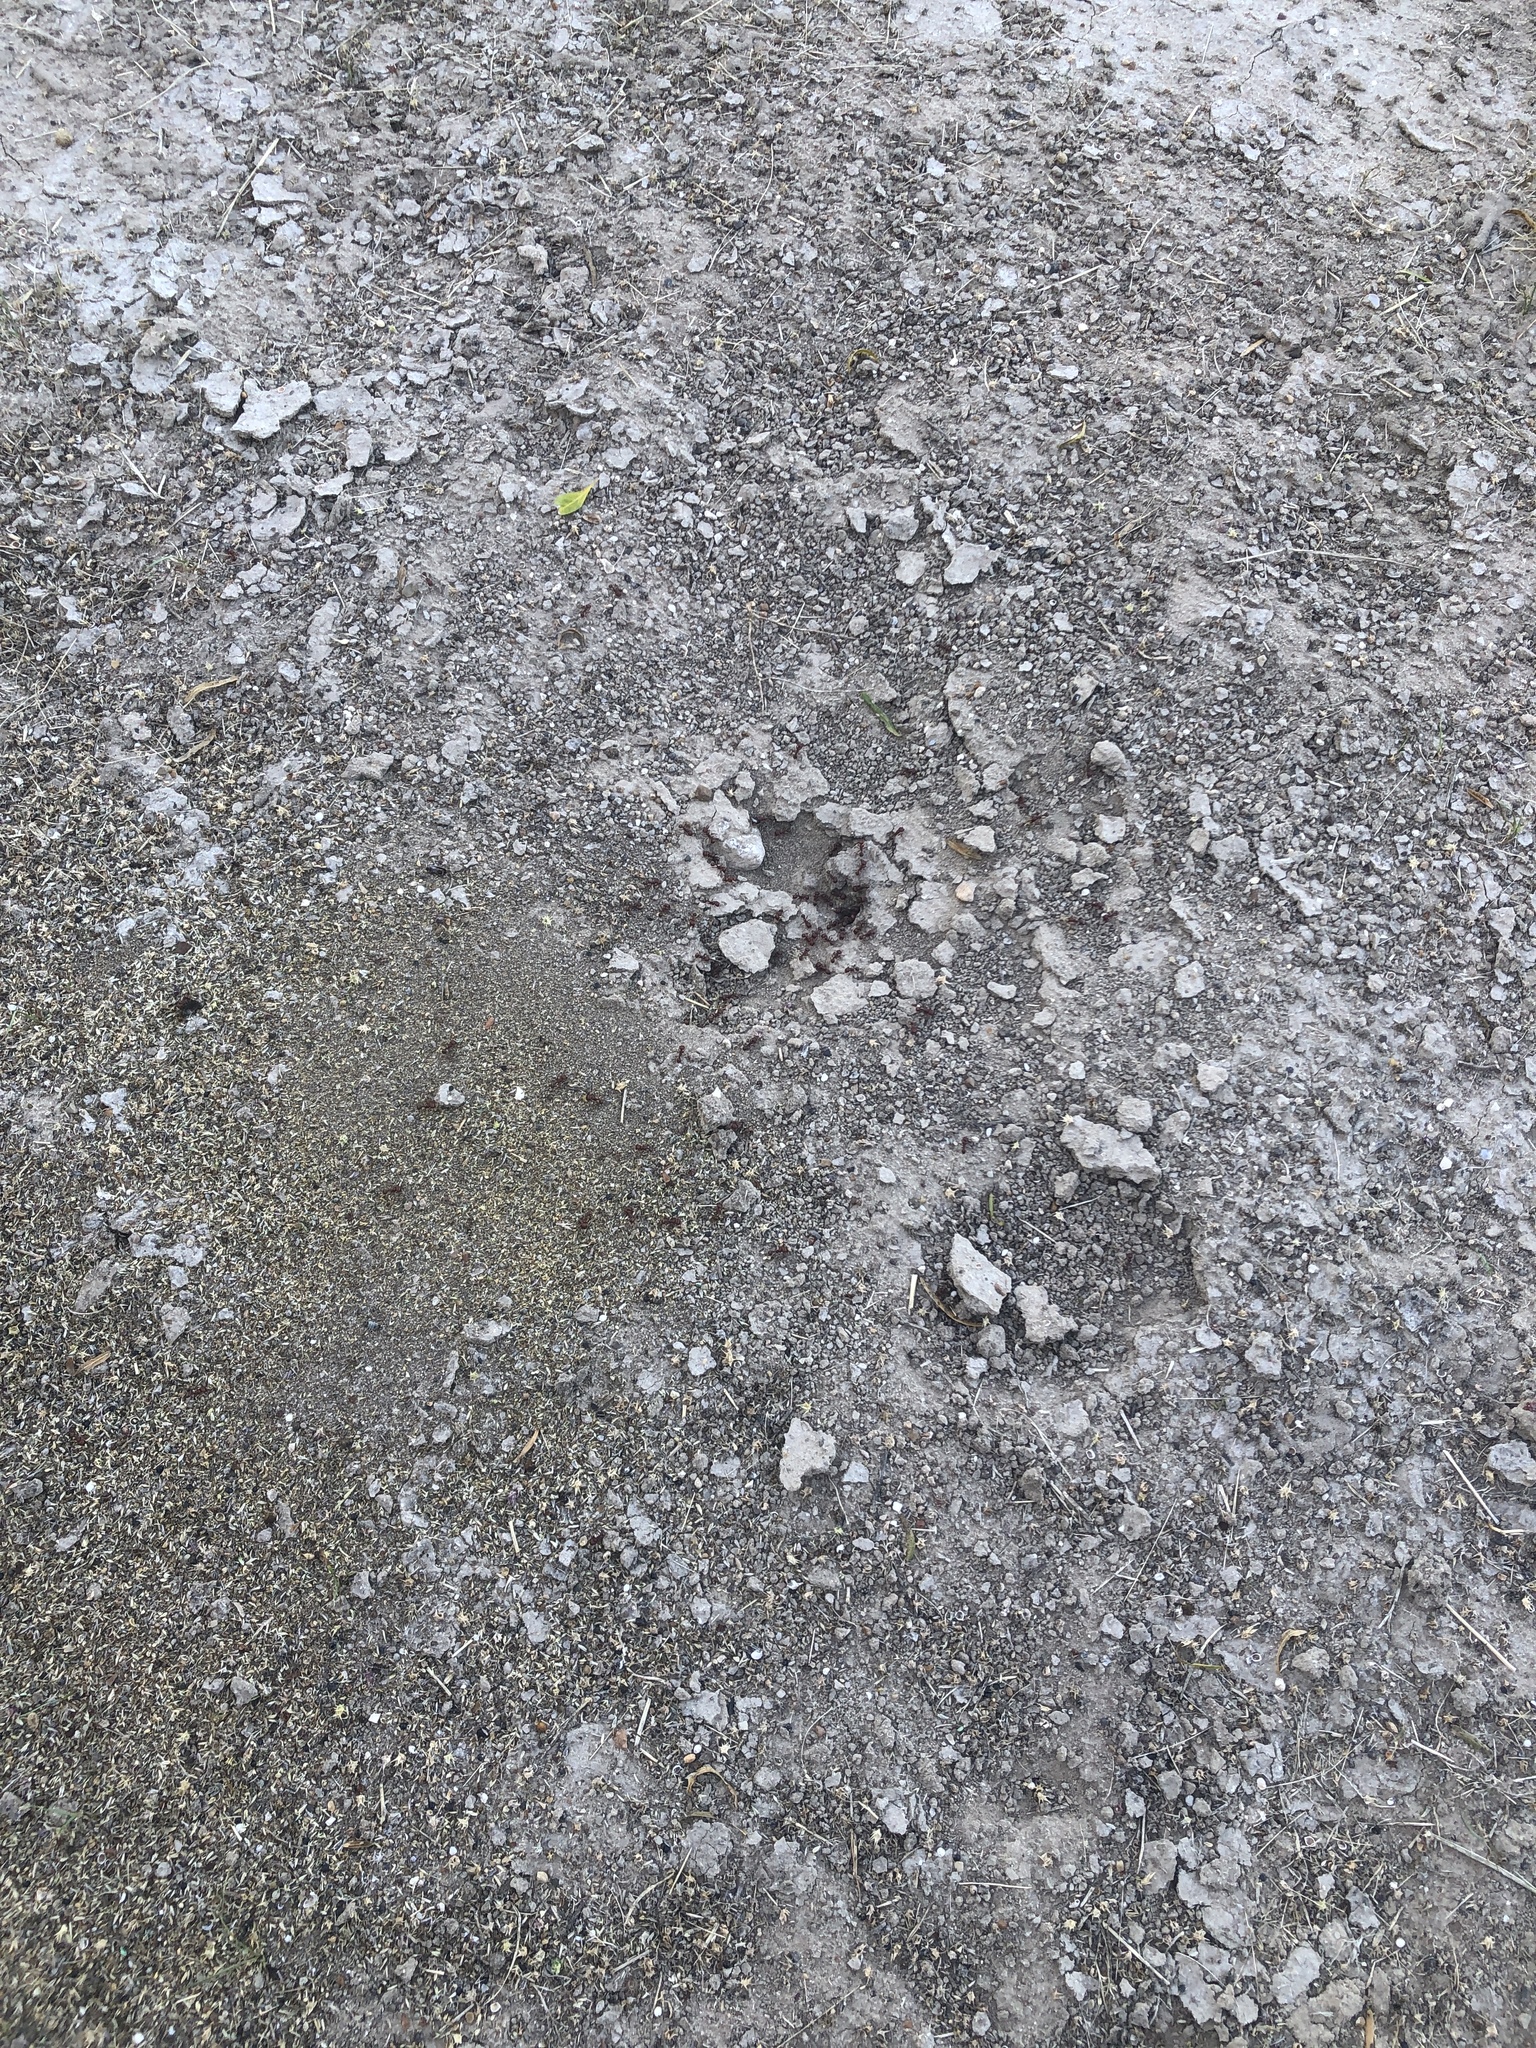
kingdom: Animalia
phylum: Arthropoda
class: Insecta
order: Hymenoptera
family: Formicidae
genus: Pogonomyrmex
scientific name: Pogonomyrmex barbatus
